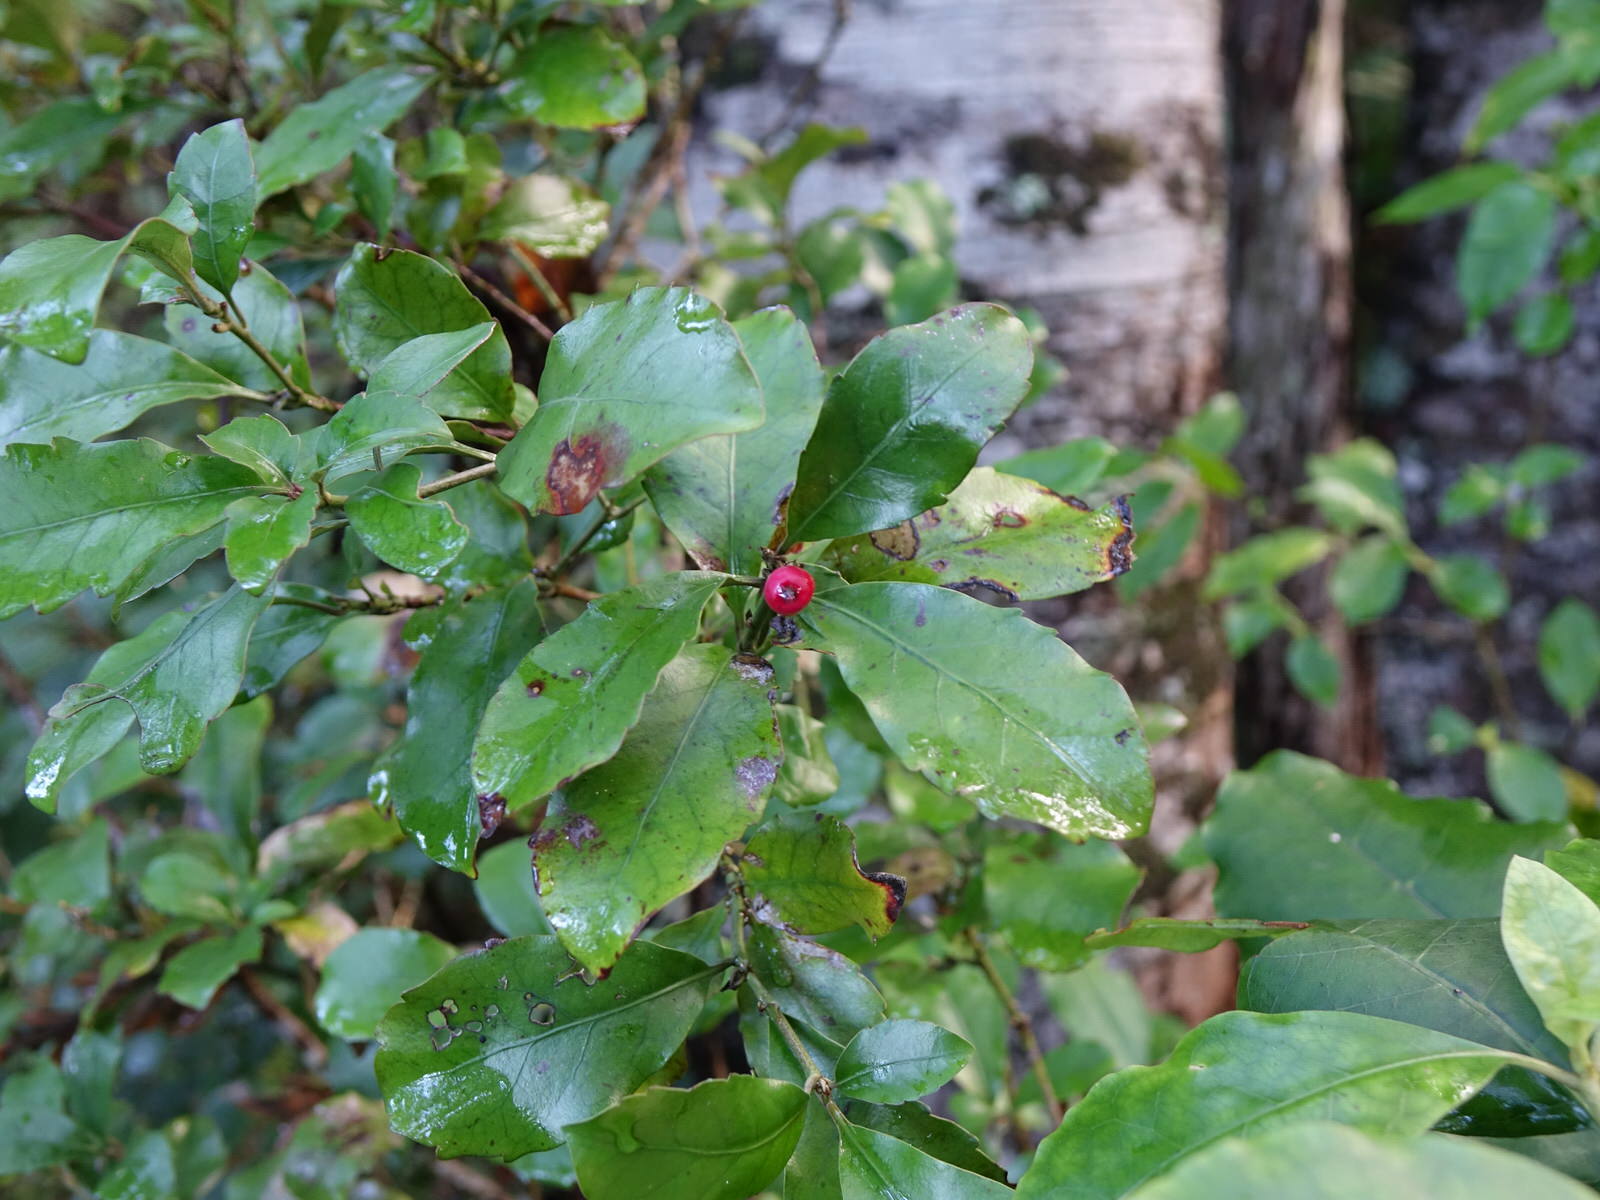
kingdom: Plantae
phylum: Tracheophyta
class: Magnoliopsida
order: Asterales
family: Alseuosmiaceae
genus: Alseuosmia
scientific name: Alseuosmia macrophylla
